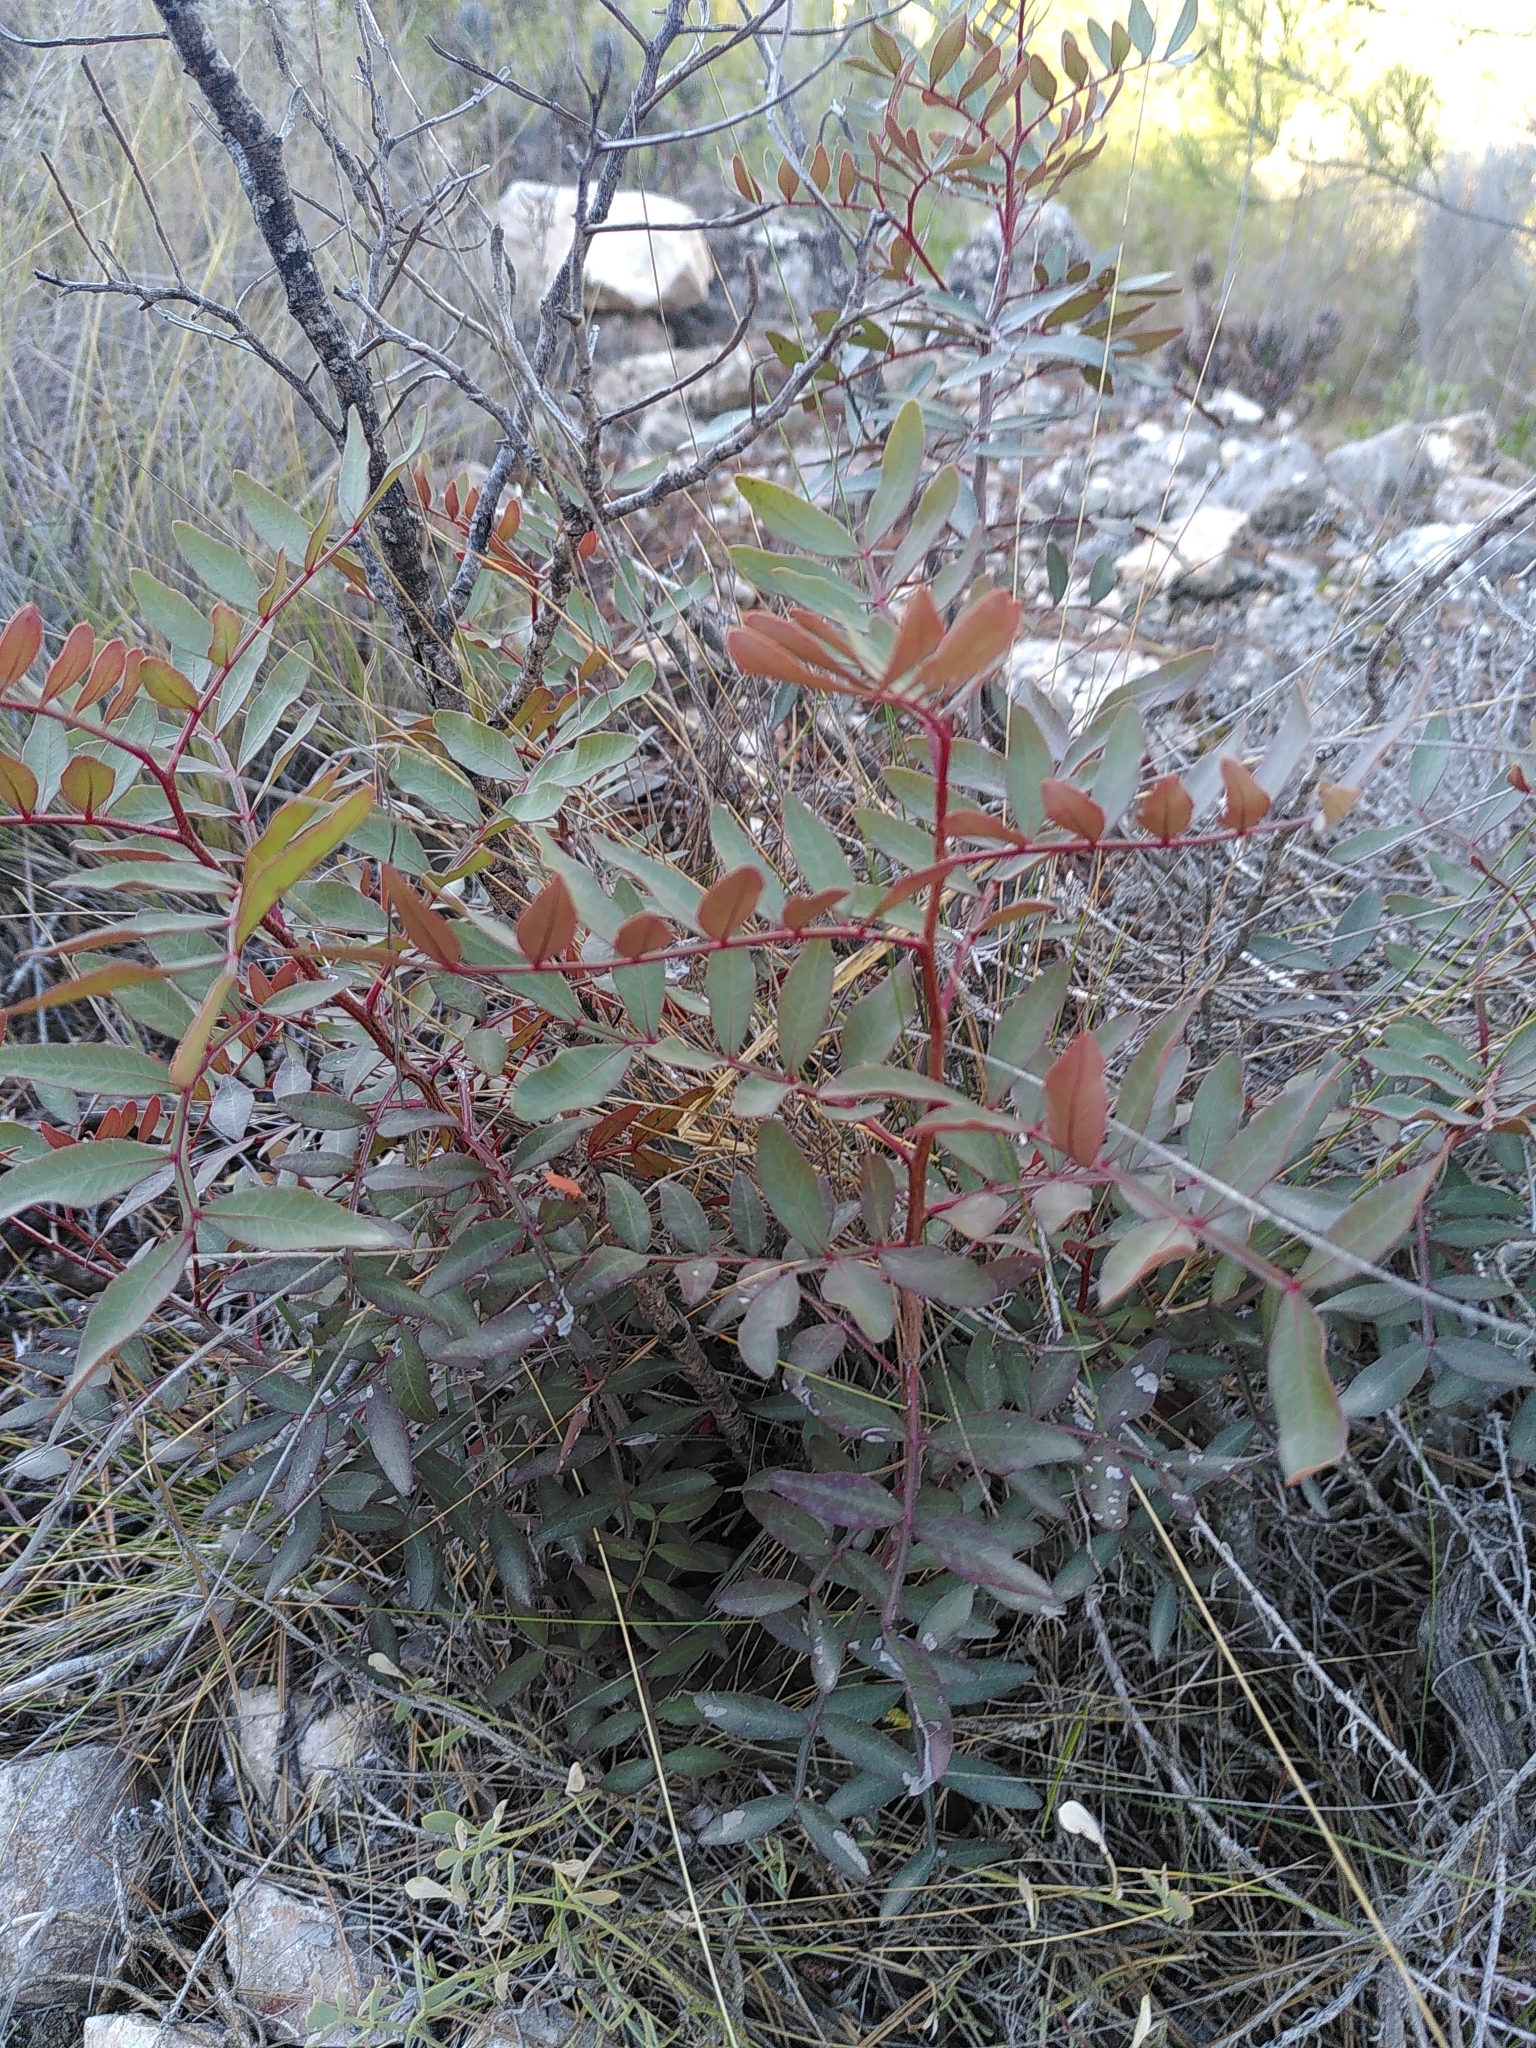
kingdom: Plantae
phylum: Tracheophyta
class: Magnoliopsida
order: Sapindales
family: Anacardiaceae
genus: Pistacia
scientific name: Pistacia lentiscus
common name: Lentisk
